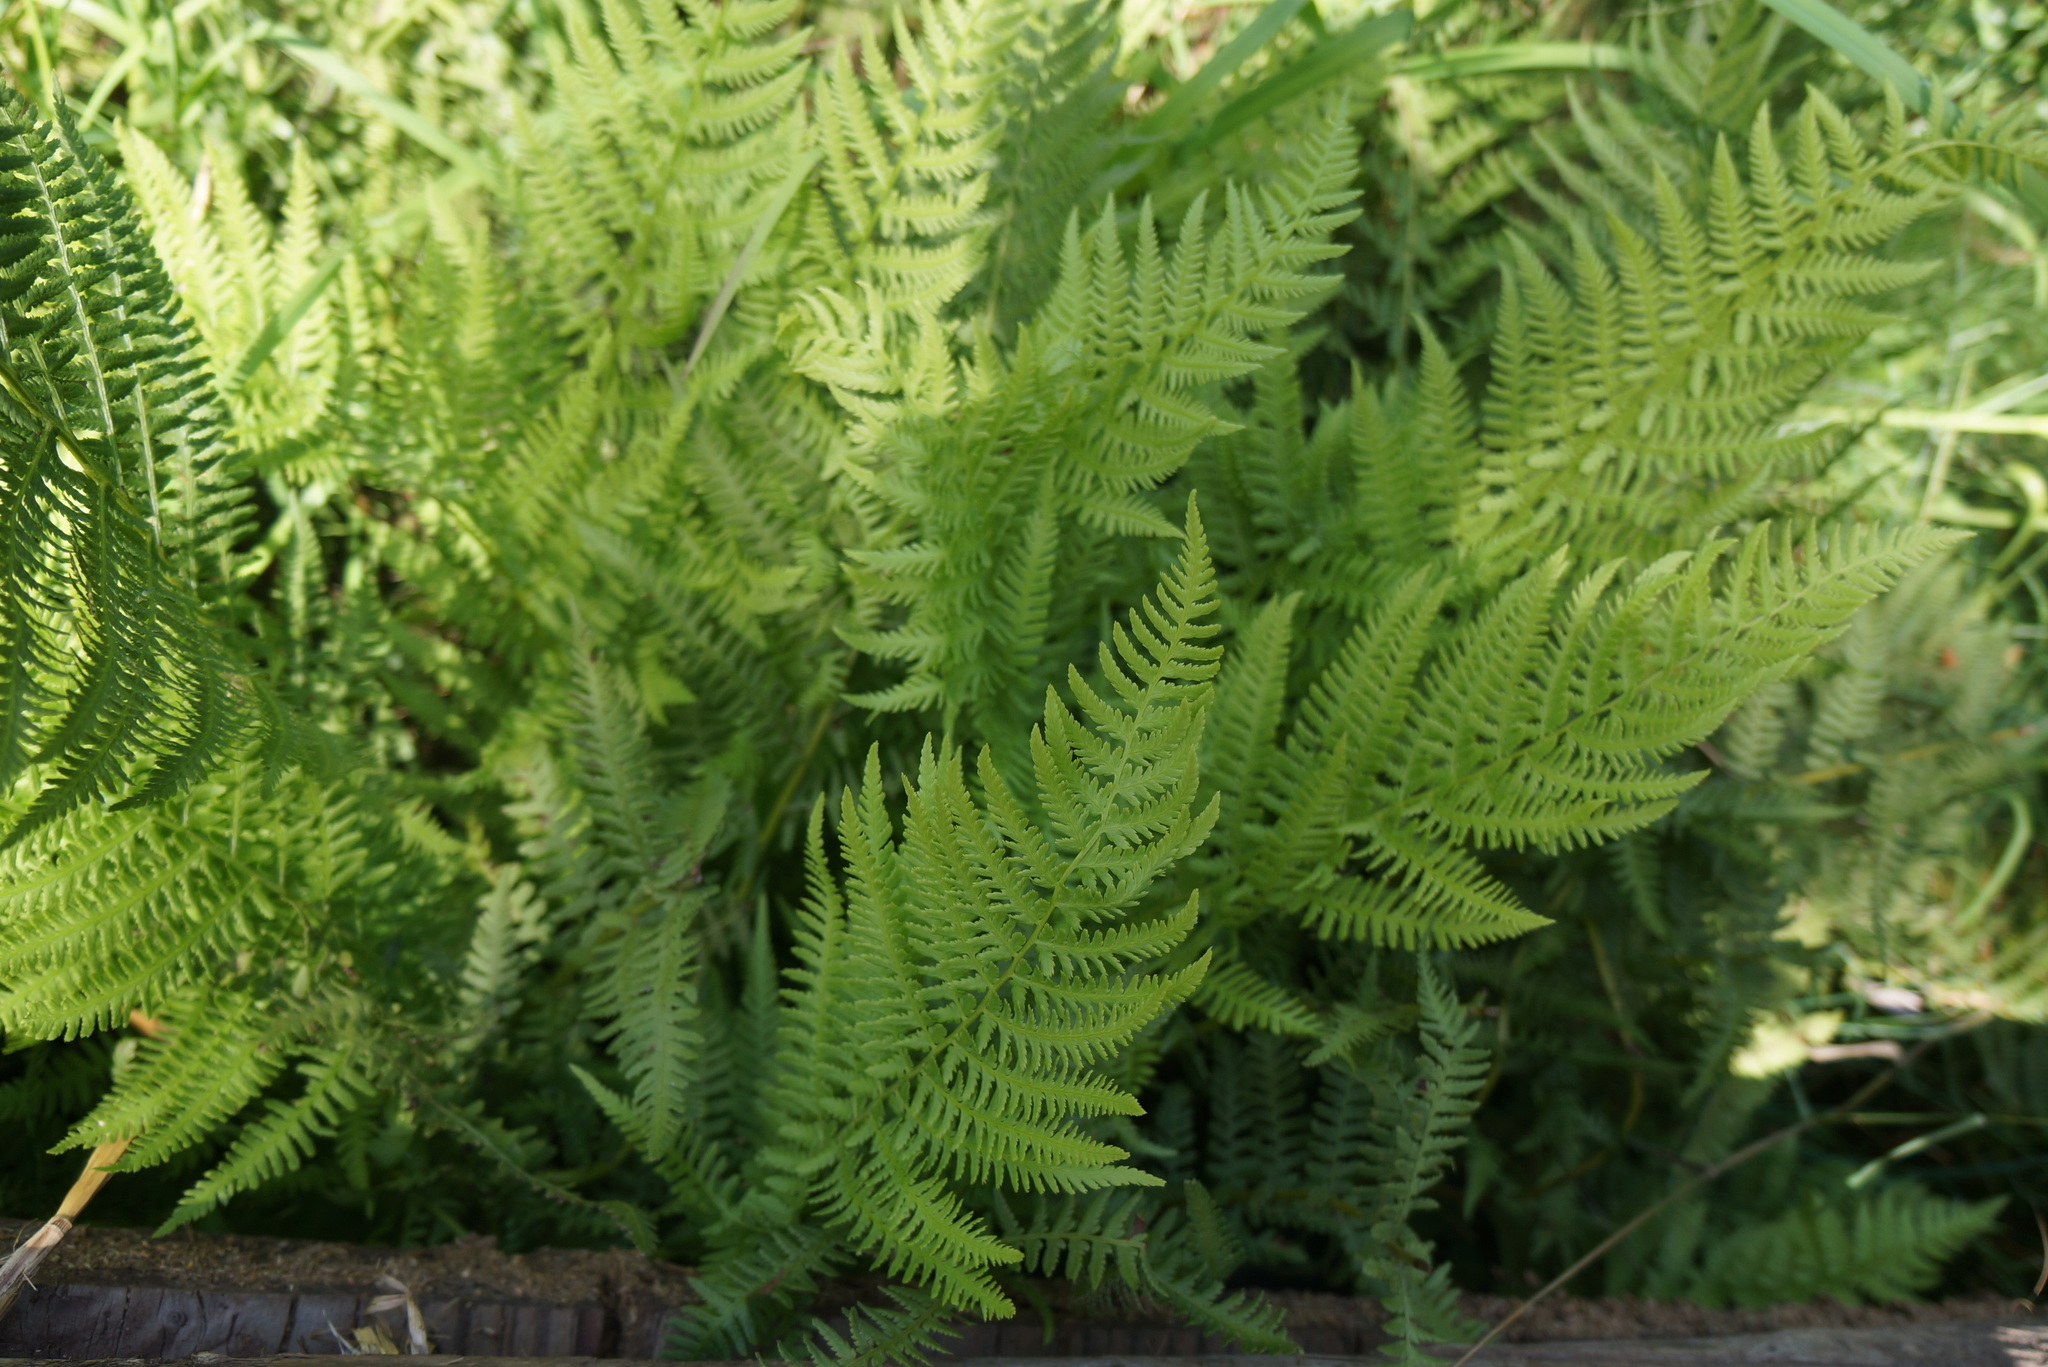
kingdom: Plantae
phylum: Tracheophyta
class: Polypodiopsida
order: Polypodiales
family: Athyriaceae
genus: Athyrium
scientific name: Athyrium cyclosorum
